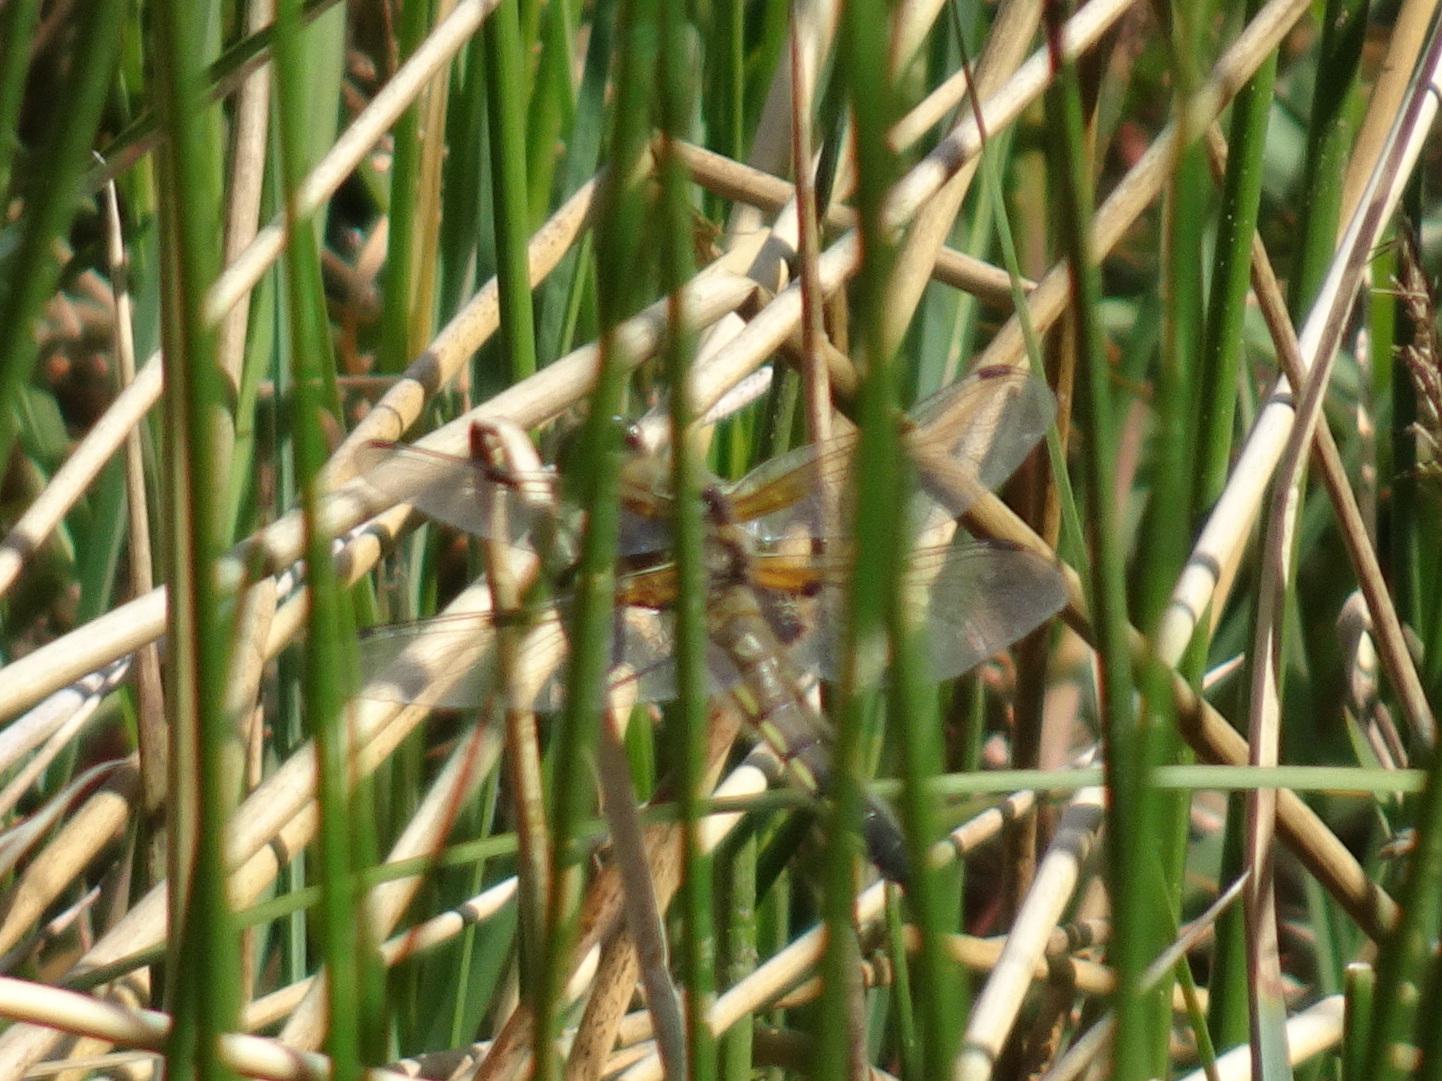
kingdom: Animalia
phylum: Arthropoda
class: Insecta
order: Odonata
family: Libellulidae
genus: Libellula
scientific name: Libellula quadrimaculata
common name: Four-spotted chaser
